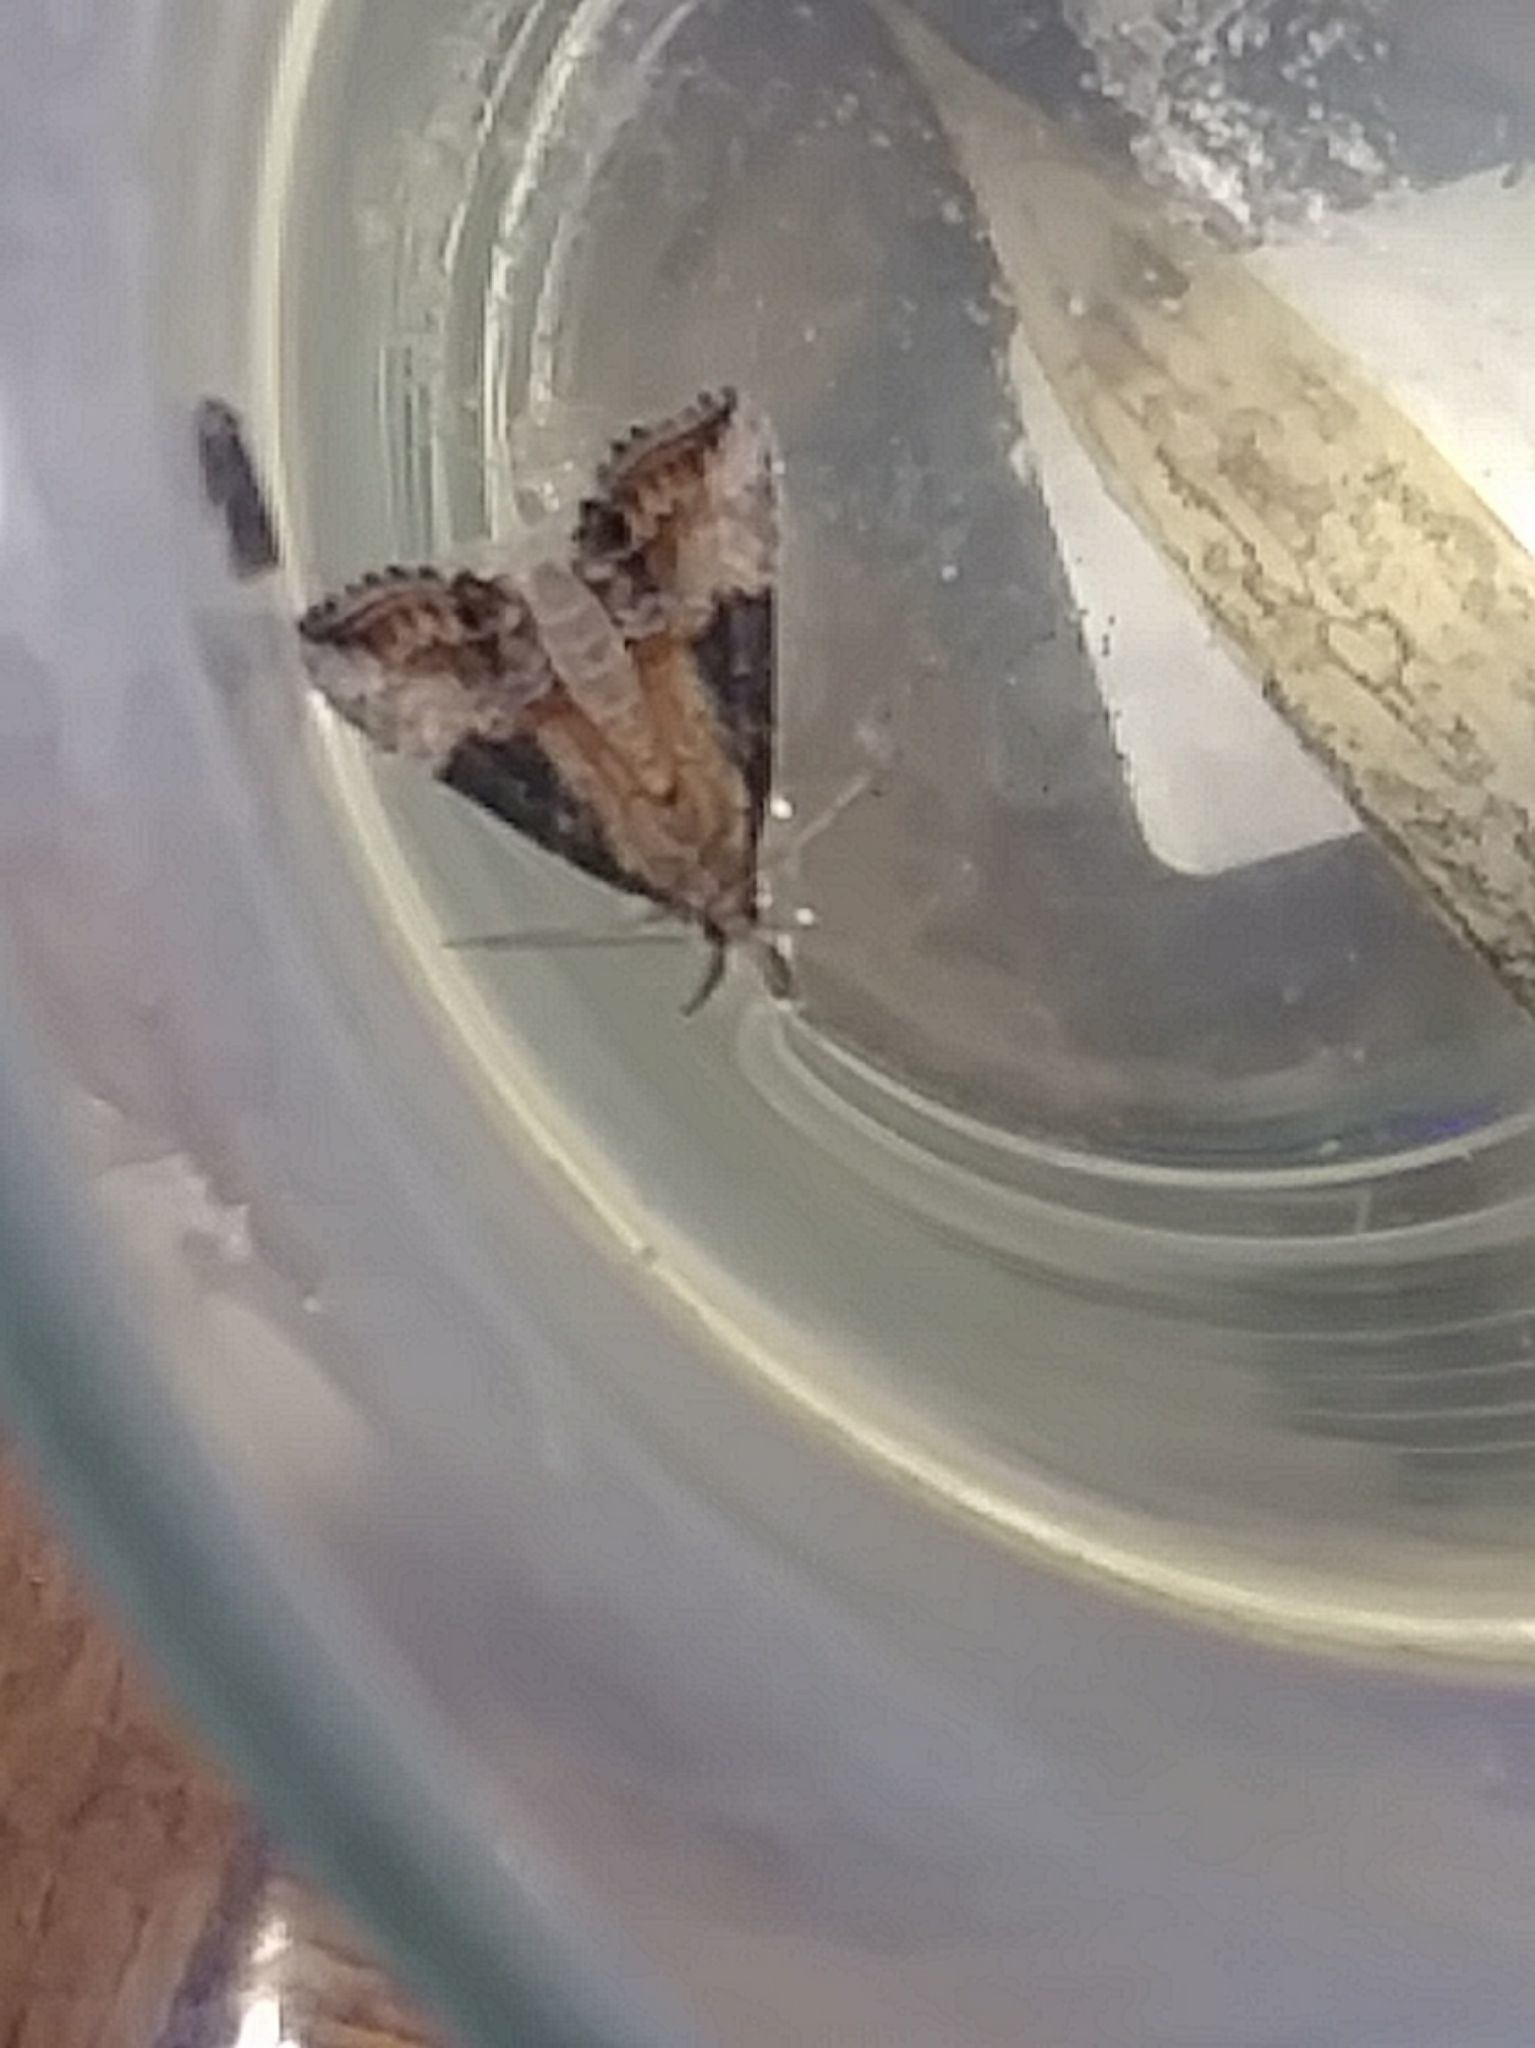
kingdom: Animalia
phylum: Arthropoda
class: Insecta
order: Lepidoptera
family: Erebidae
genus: Hypena
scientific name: Hypena scabra
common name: Green cloverworm
